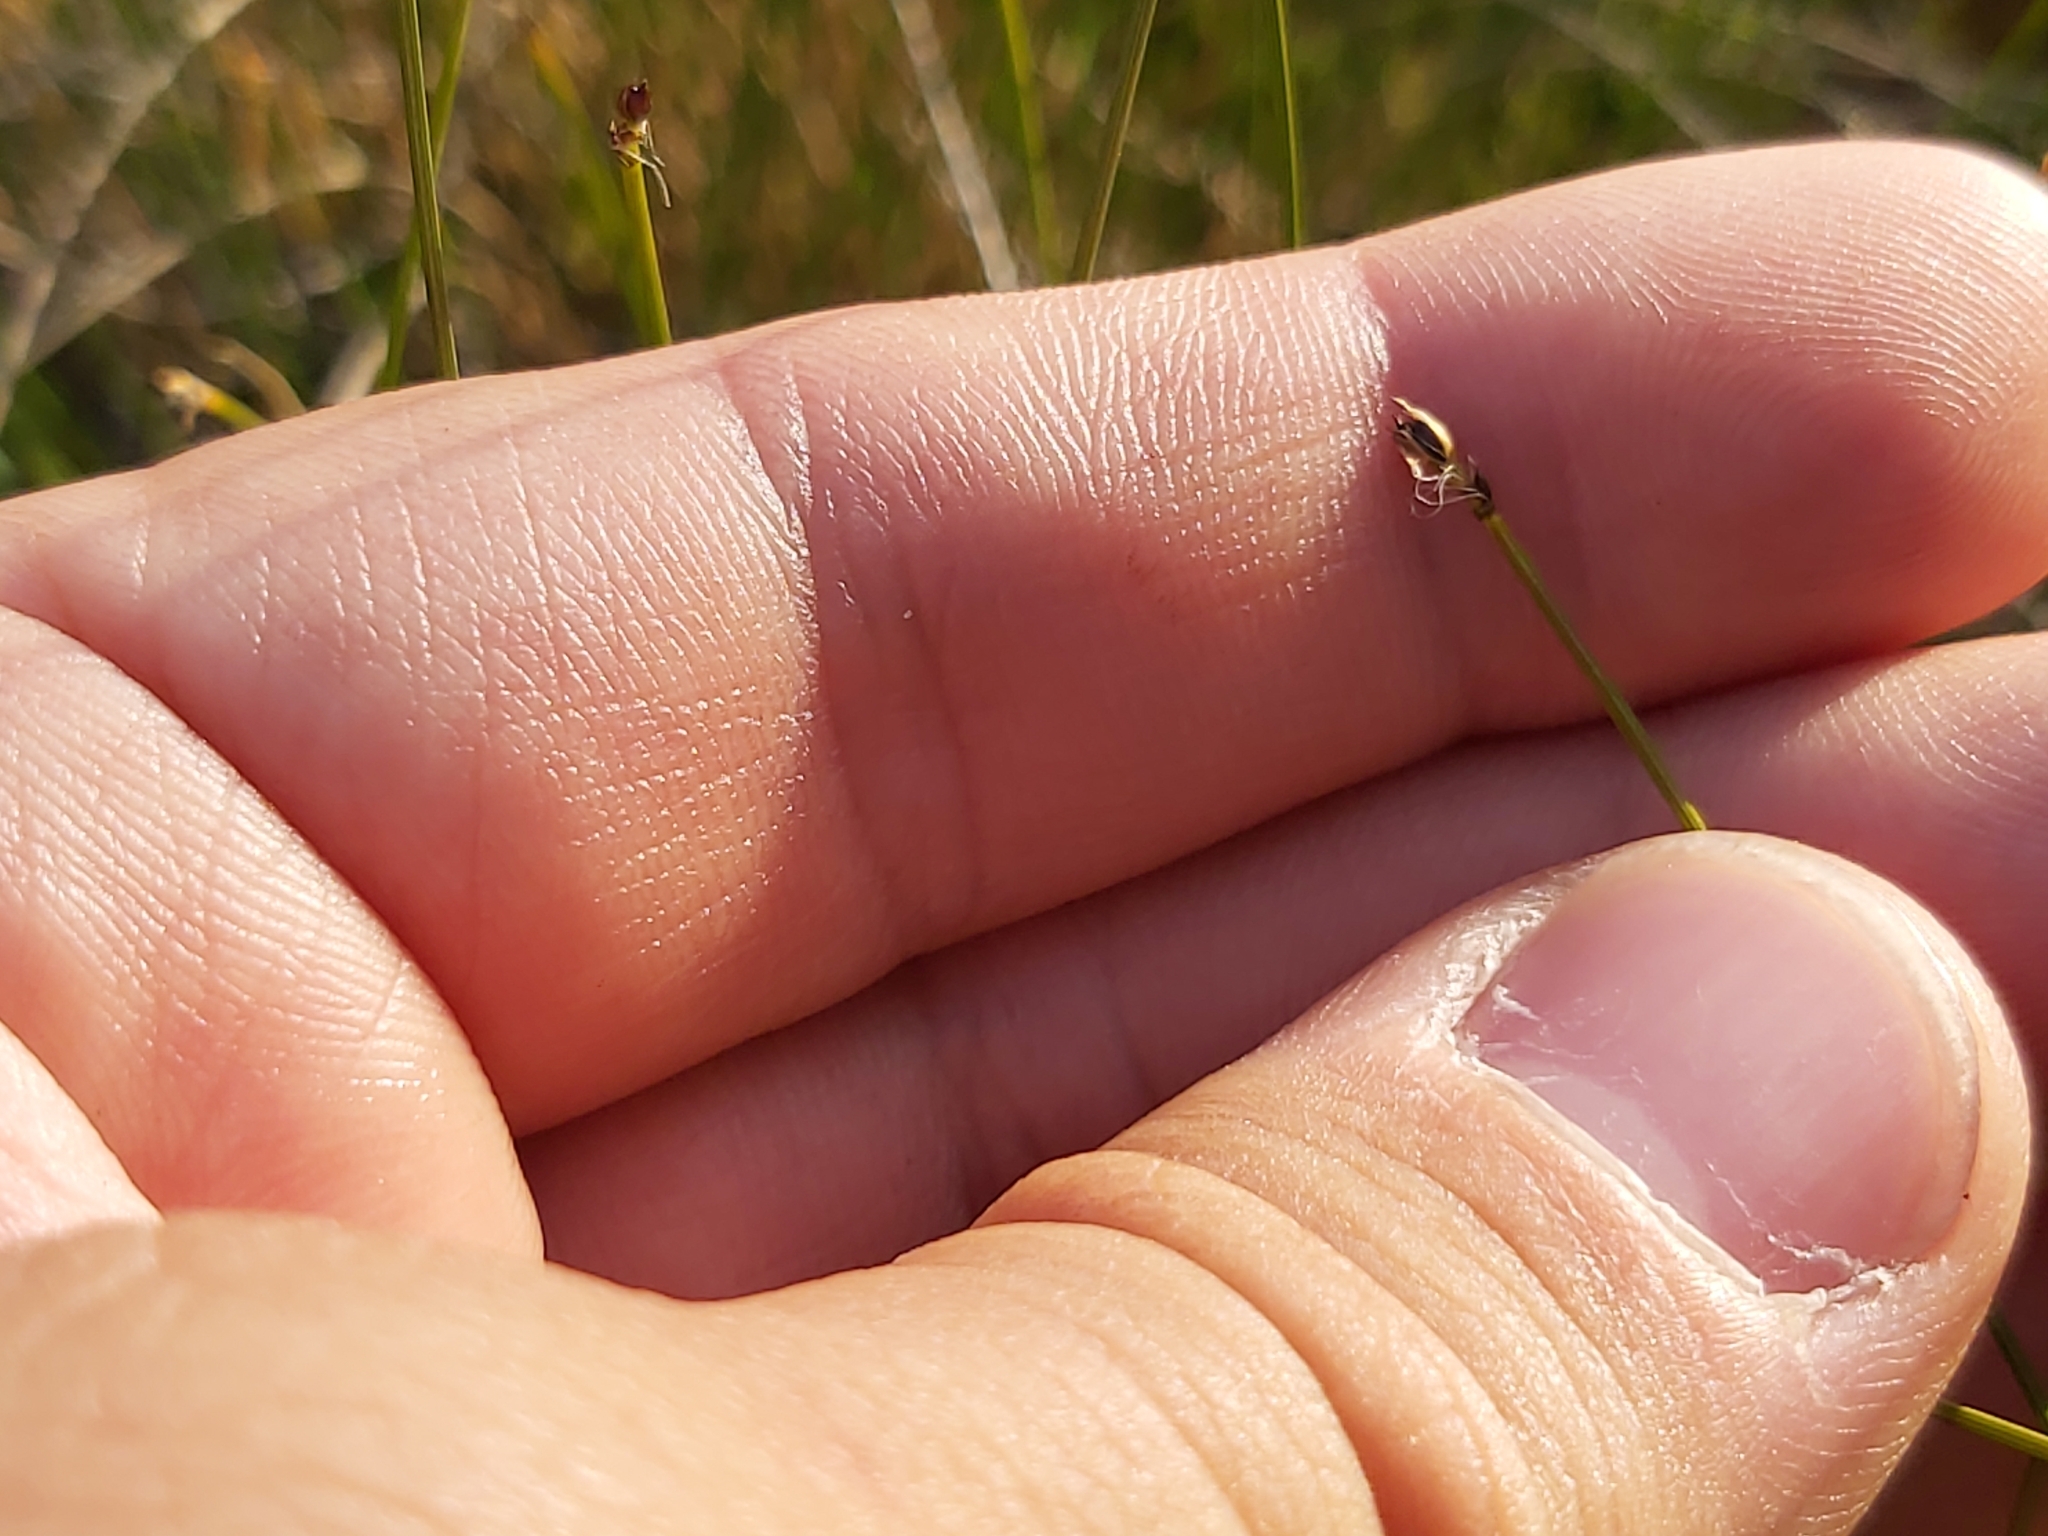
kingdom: Plantae
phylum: Tracheophyta
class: Liliopsida
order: Poales
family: Cyperaceae
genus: Trichophorum
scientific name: Trichophorum cespitosum
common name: Cespitose bulrush
